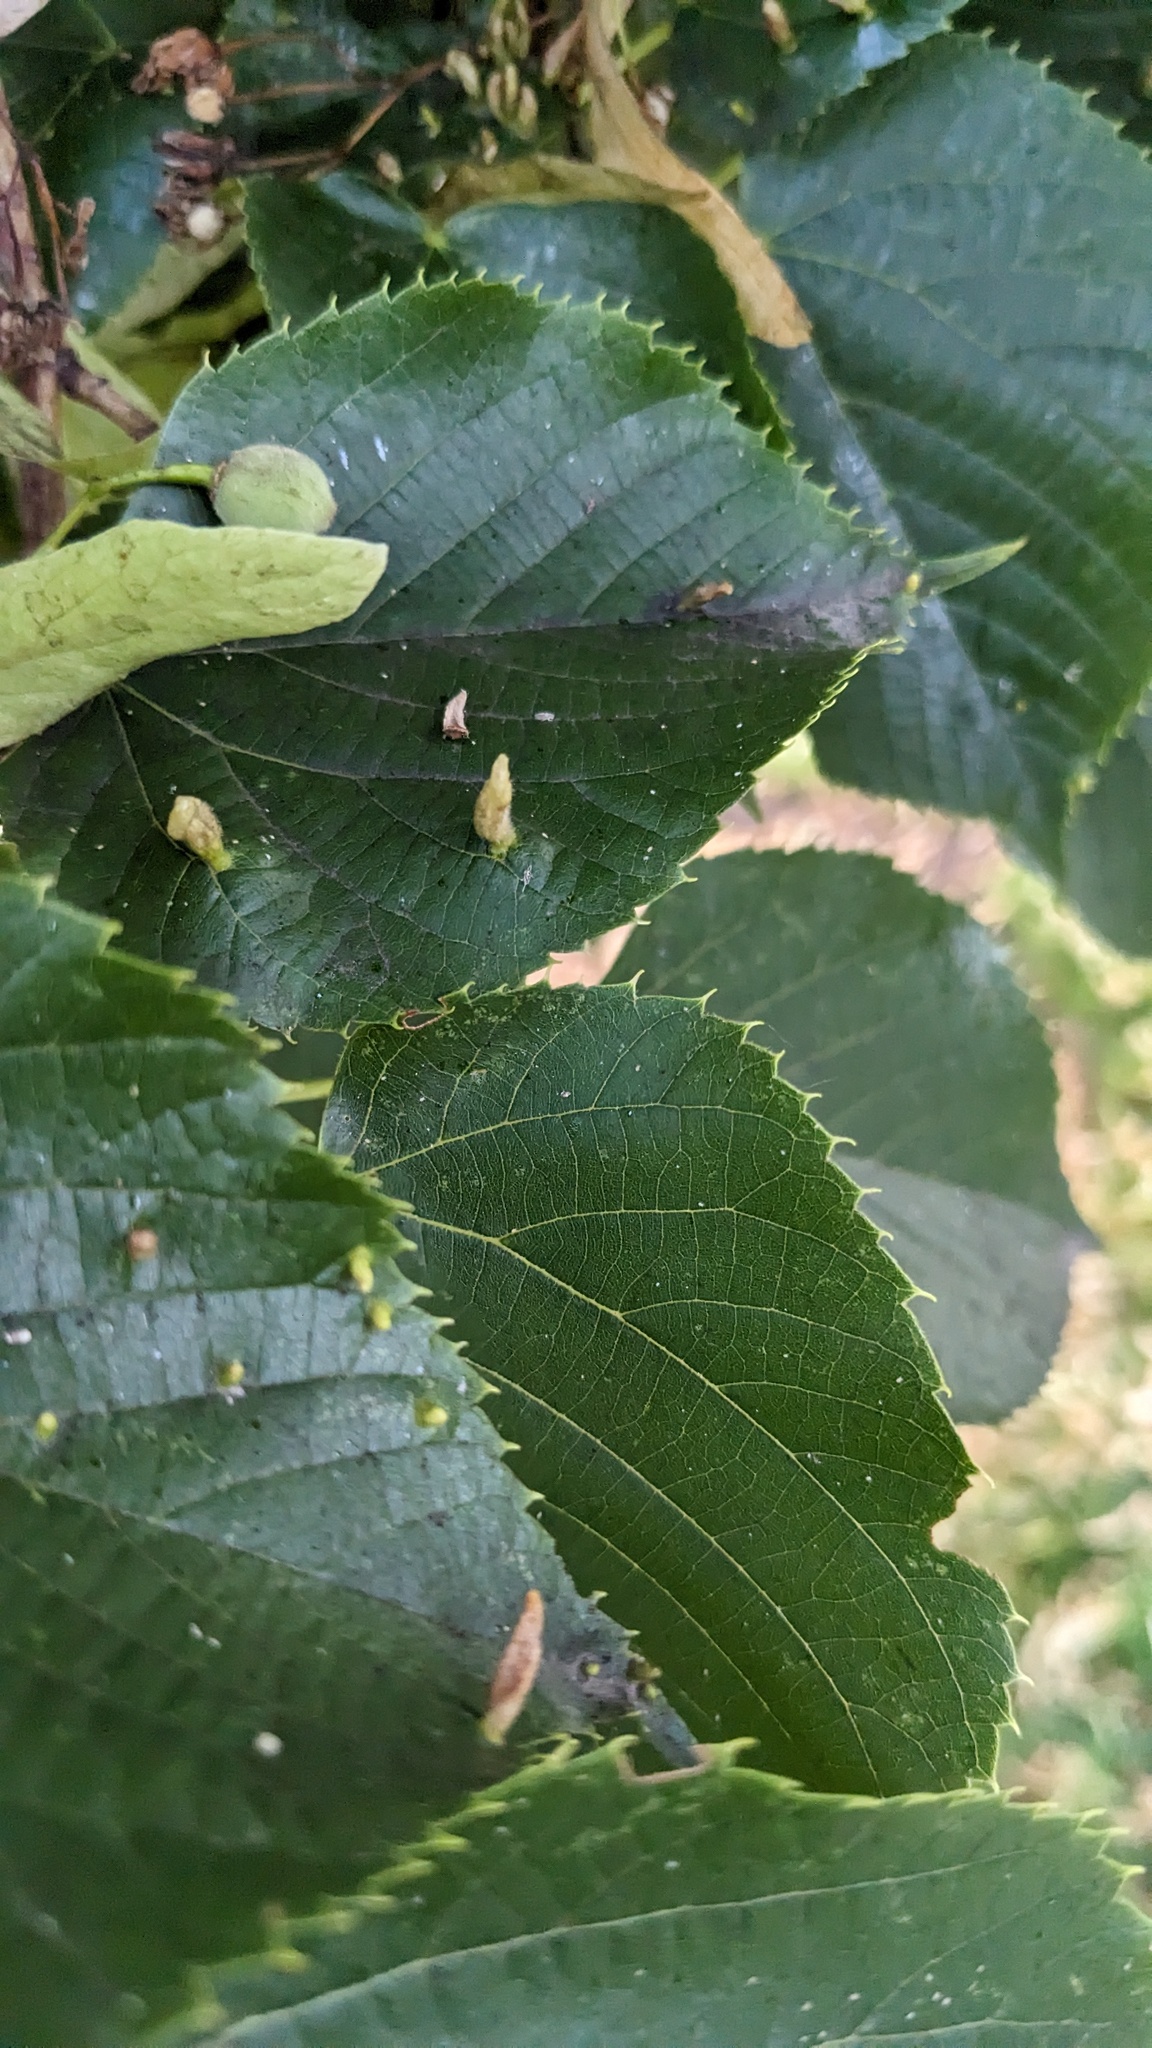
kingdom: Animalia
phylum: Arthropoda
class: Arachnida
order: Trombidiformes
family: Eriophyidae
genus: Eriophyes
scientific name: Eriophyes tiliae
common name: Red nail gall mite
